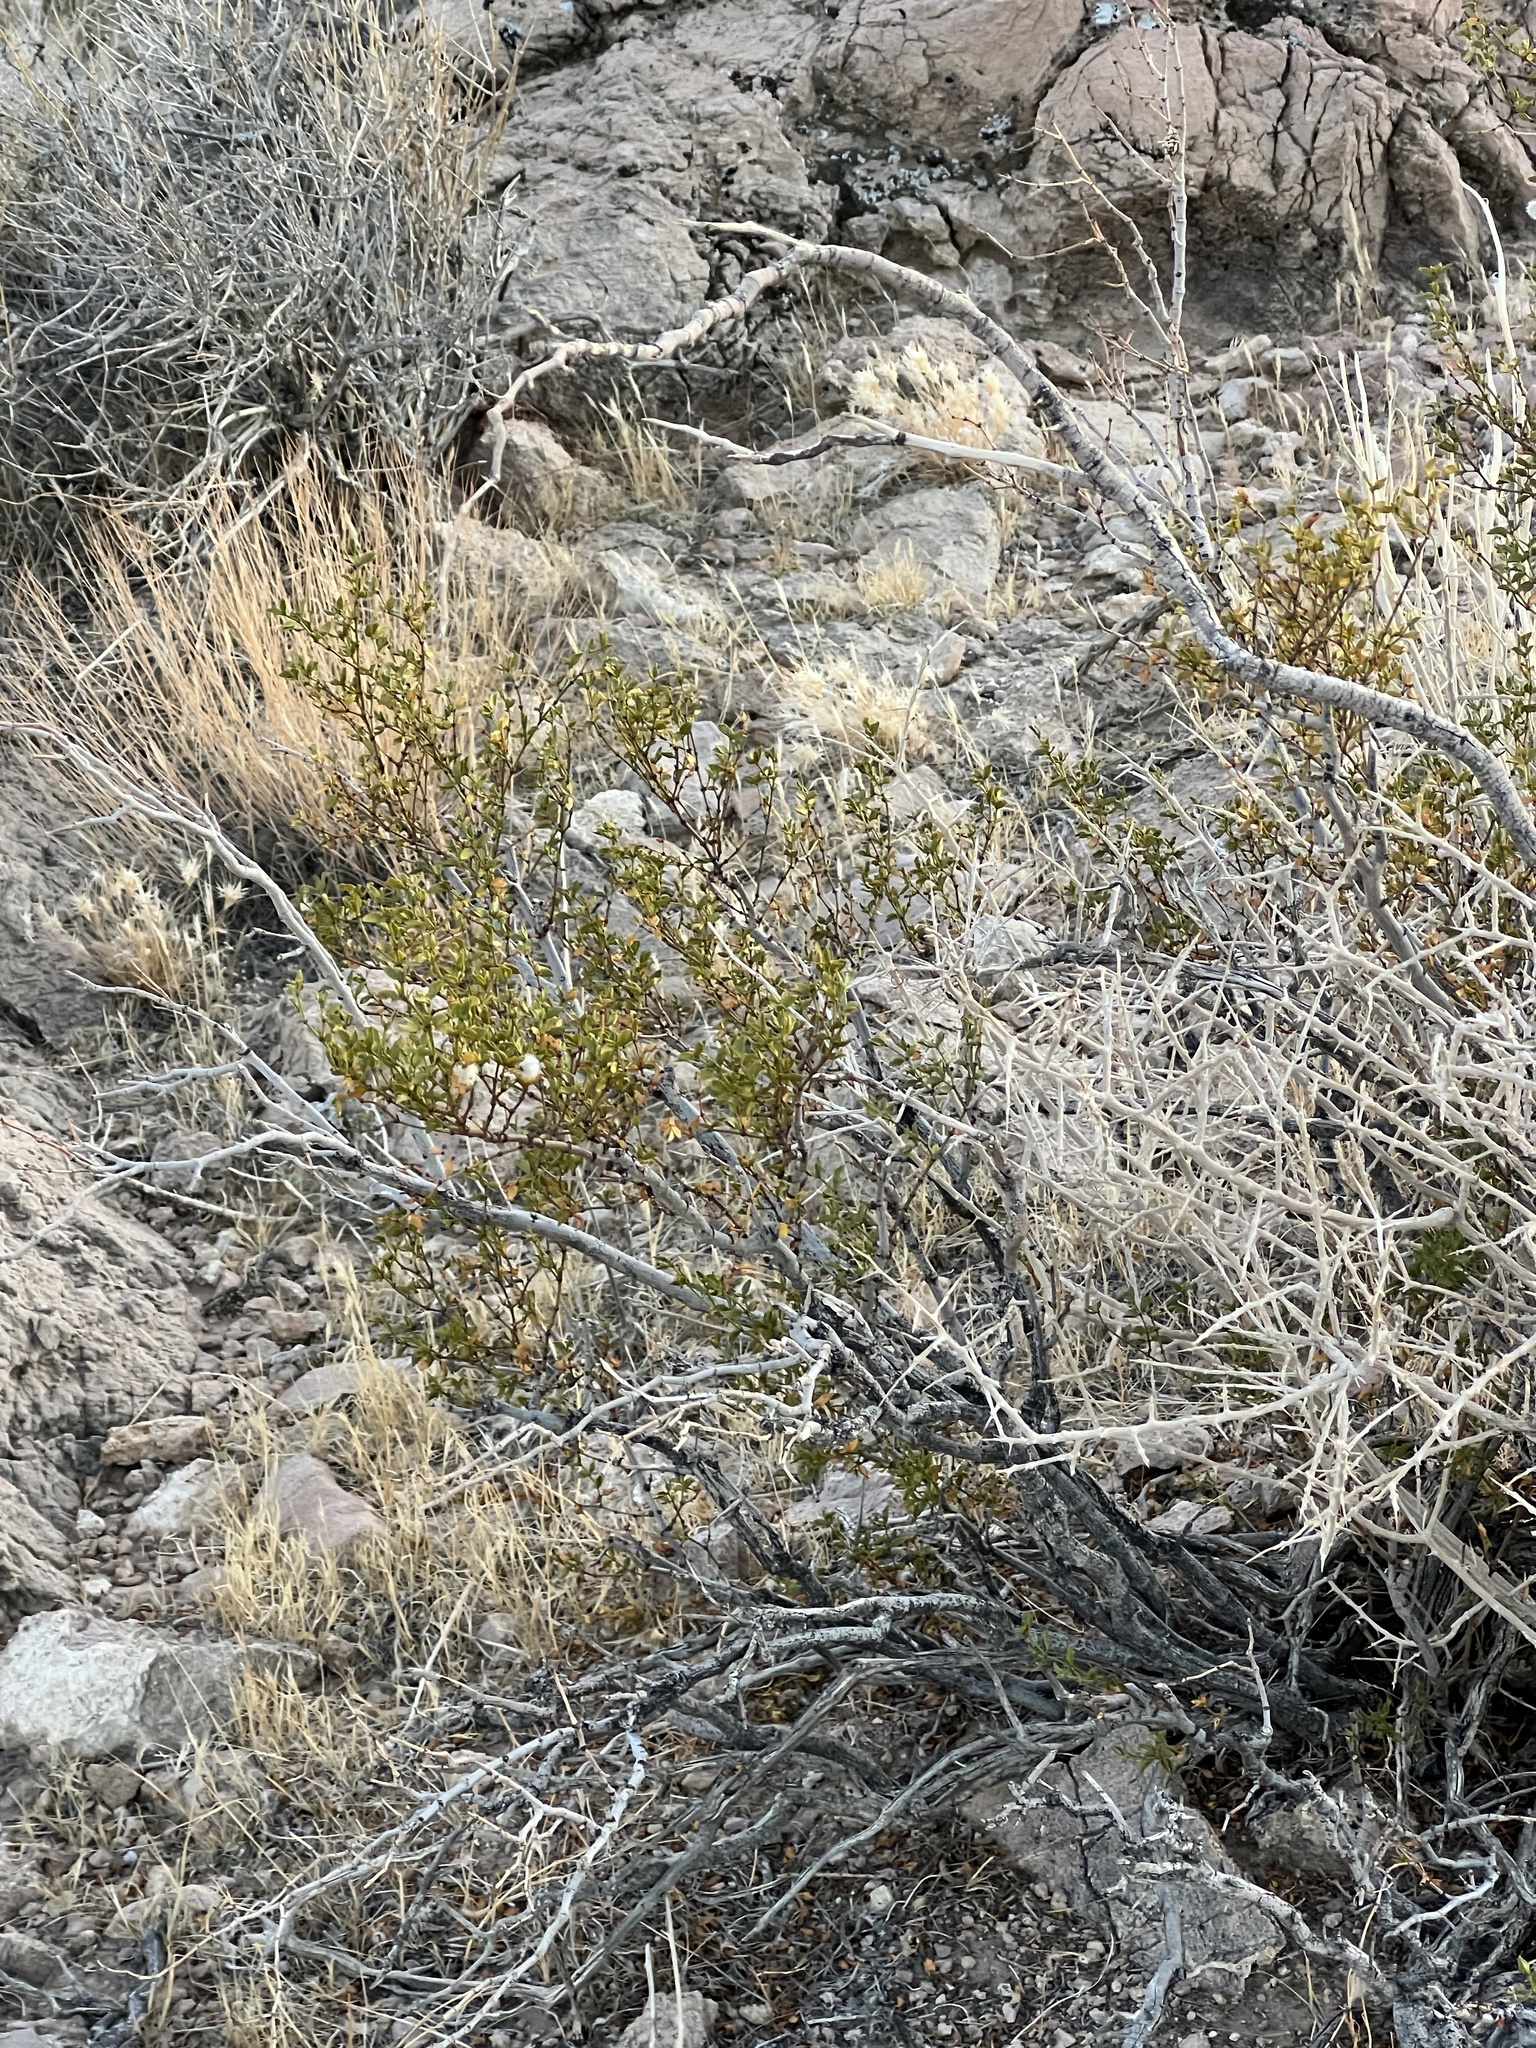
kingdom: Plantae
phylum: Tracheophyta
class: Magnoliopsida
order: Zygophyllales
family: Zygophyllaceae
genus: Larrea
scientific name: Larrea tridentata
